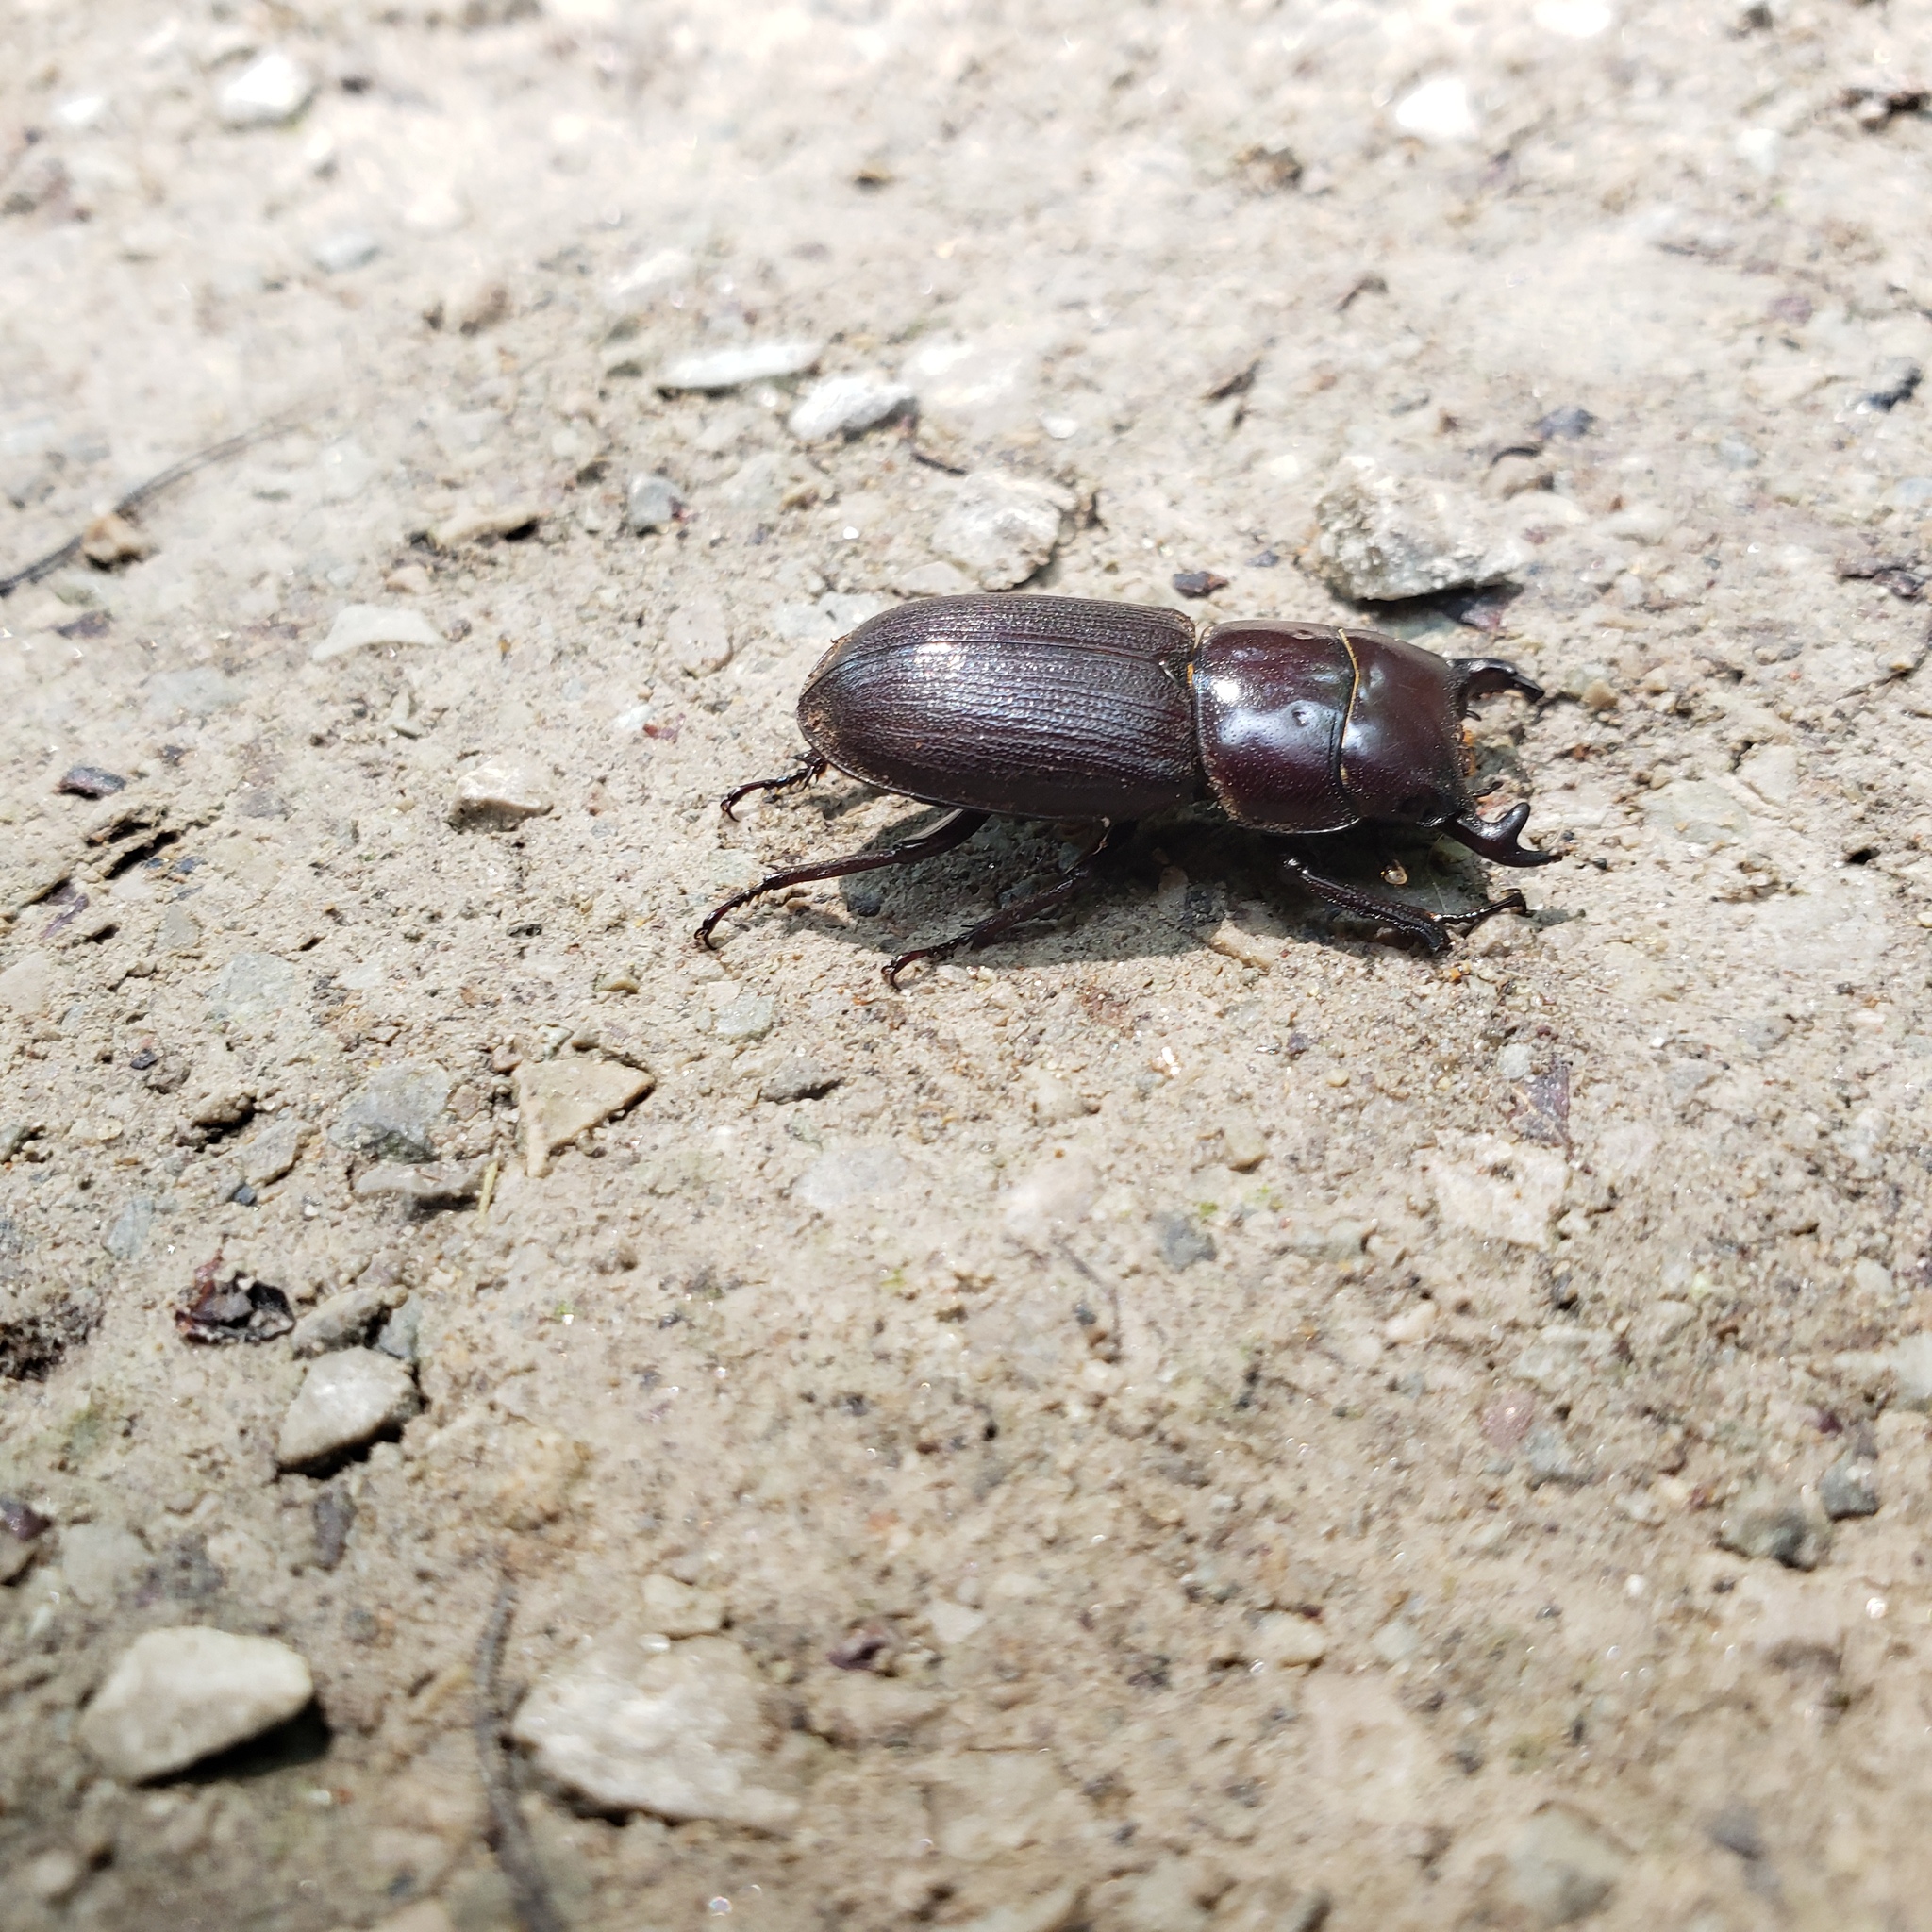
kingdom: Animalia
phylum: Arthropoda
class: Insecta
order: Coleoptera
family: Lucanidae
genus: Dorcus
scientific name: Dorcus parallelus
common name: Antelope beetle
